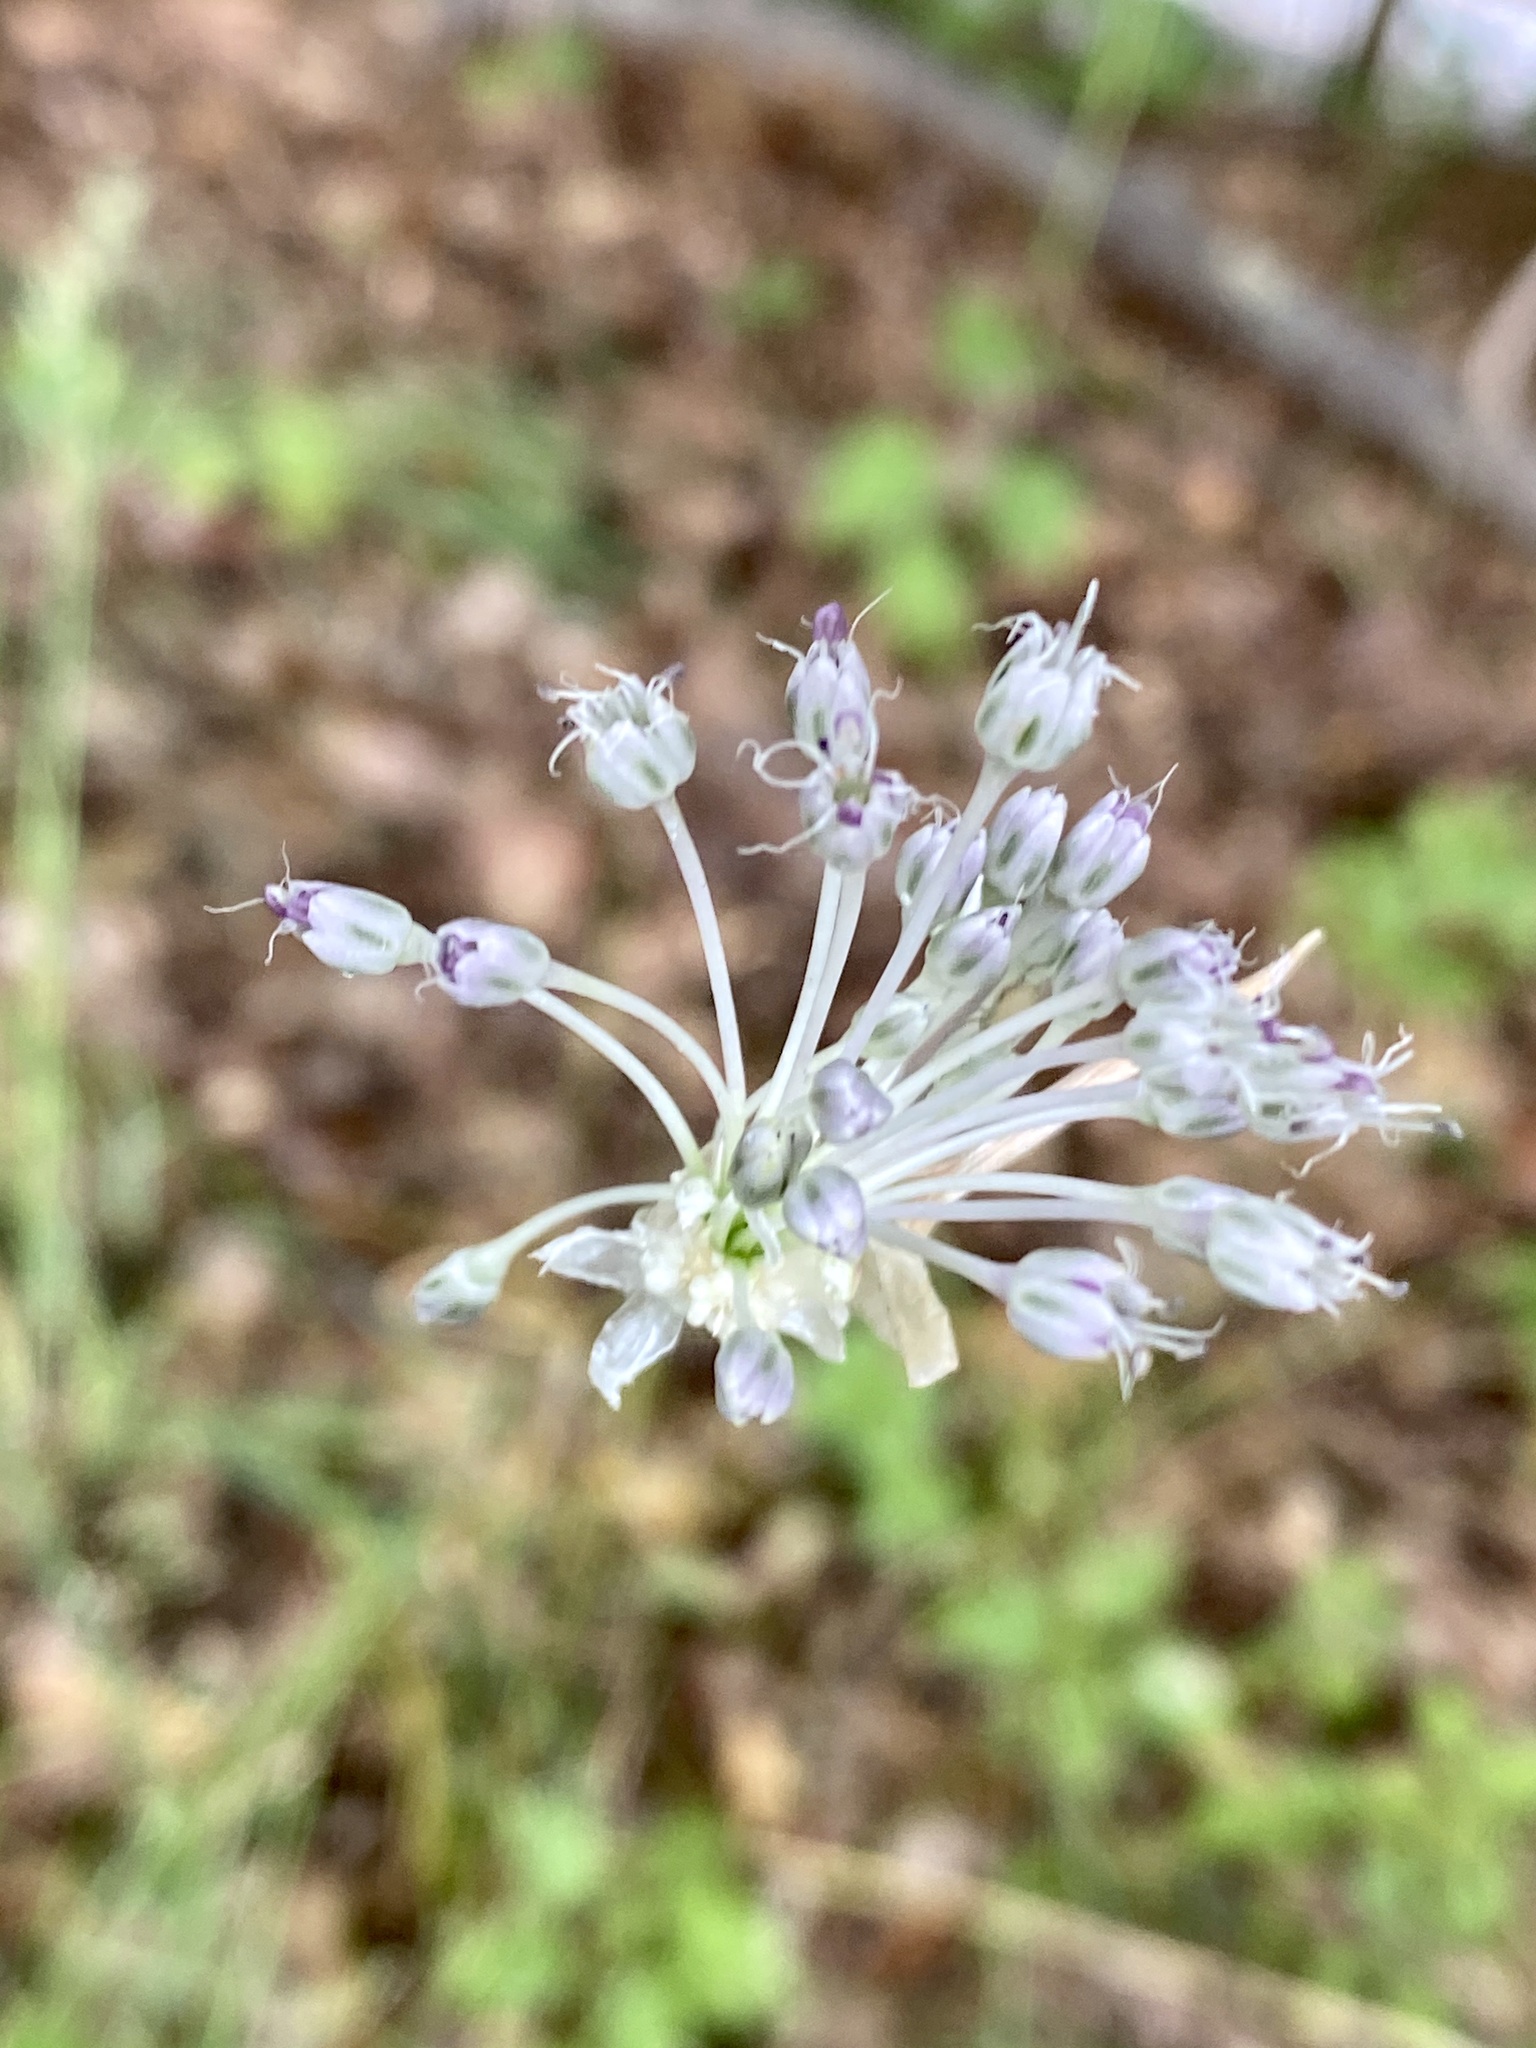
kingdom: Plantae
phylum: Tracheophyta
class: Liliopsida
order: Asparagales
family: Amaryllidaceae
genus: Allium
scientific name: Allium vineale
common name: Crow garlic
